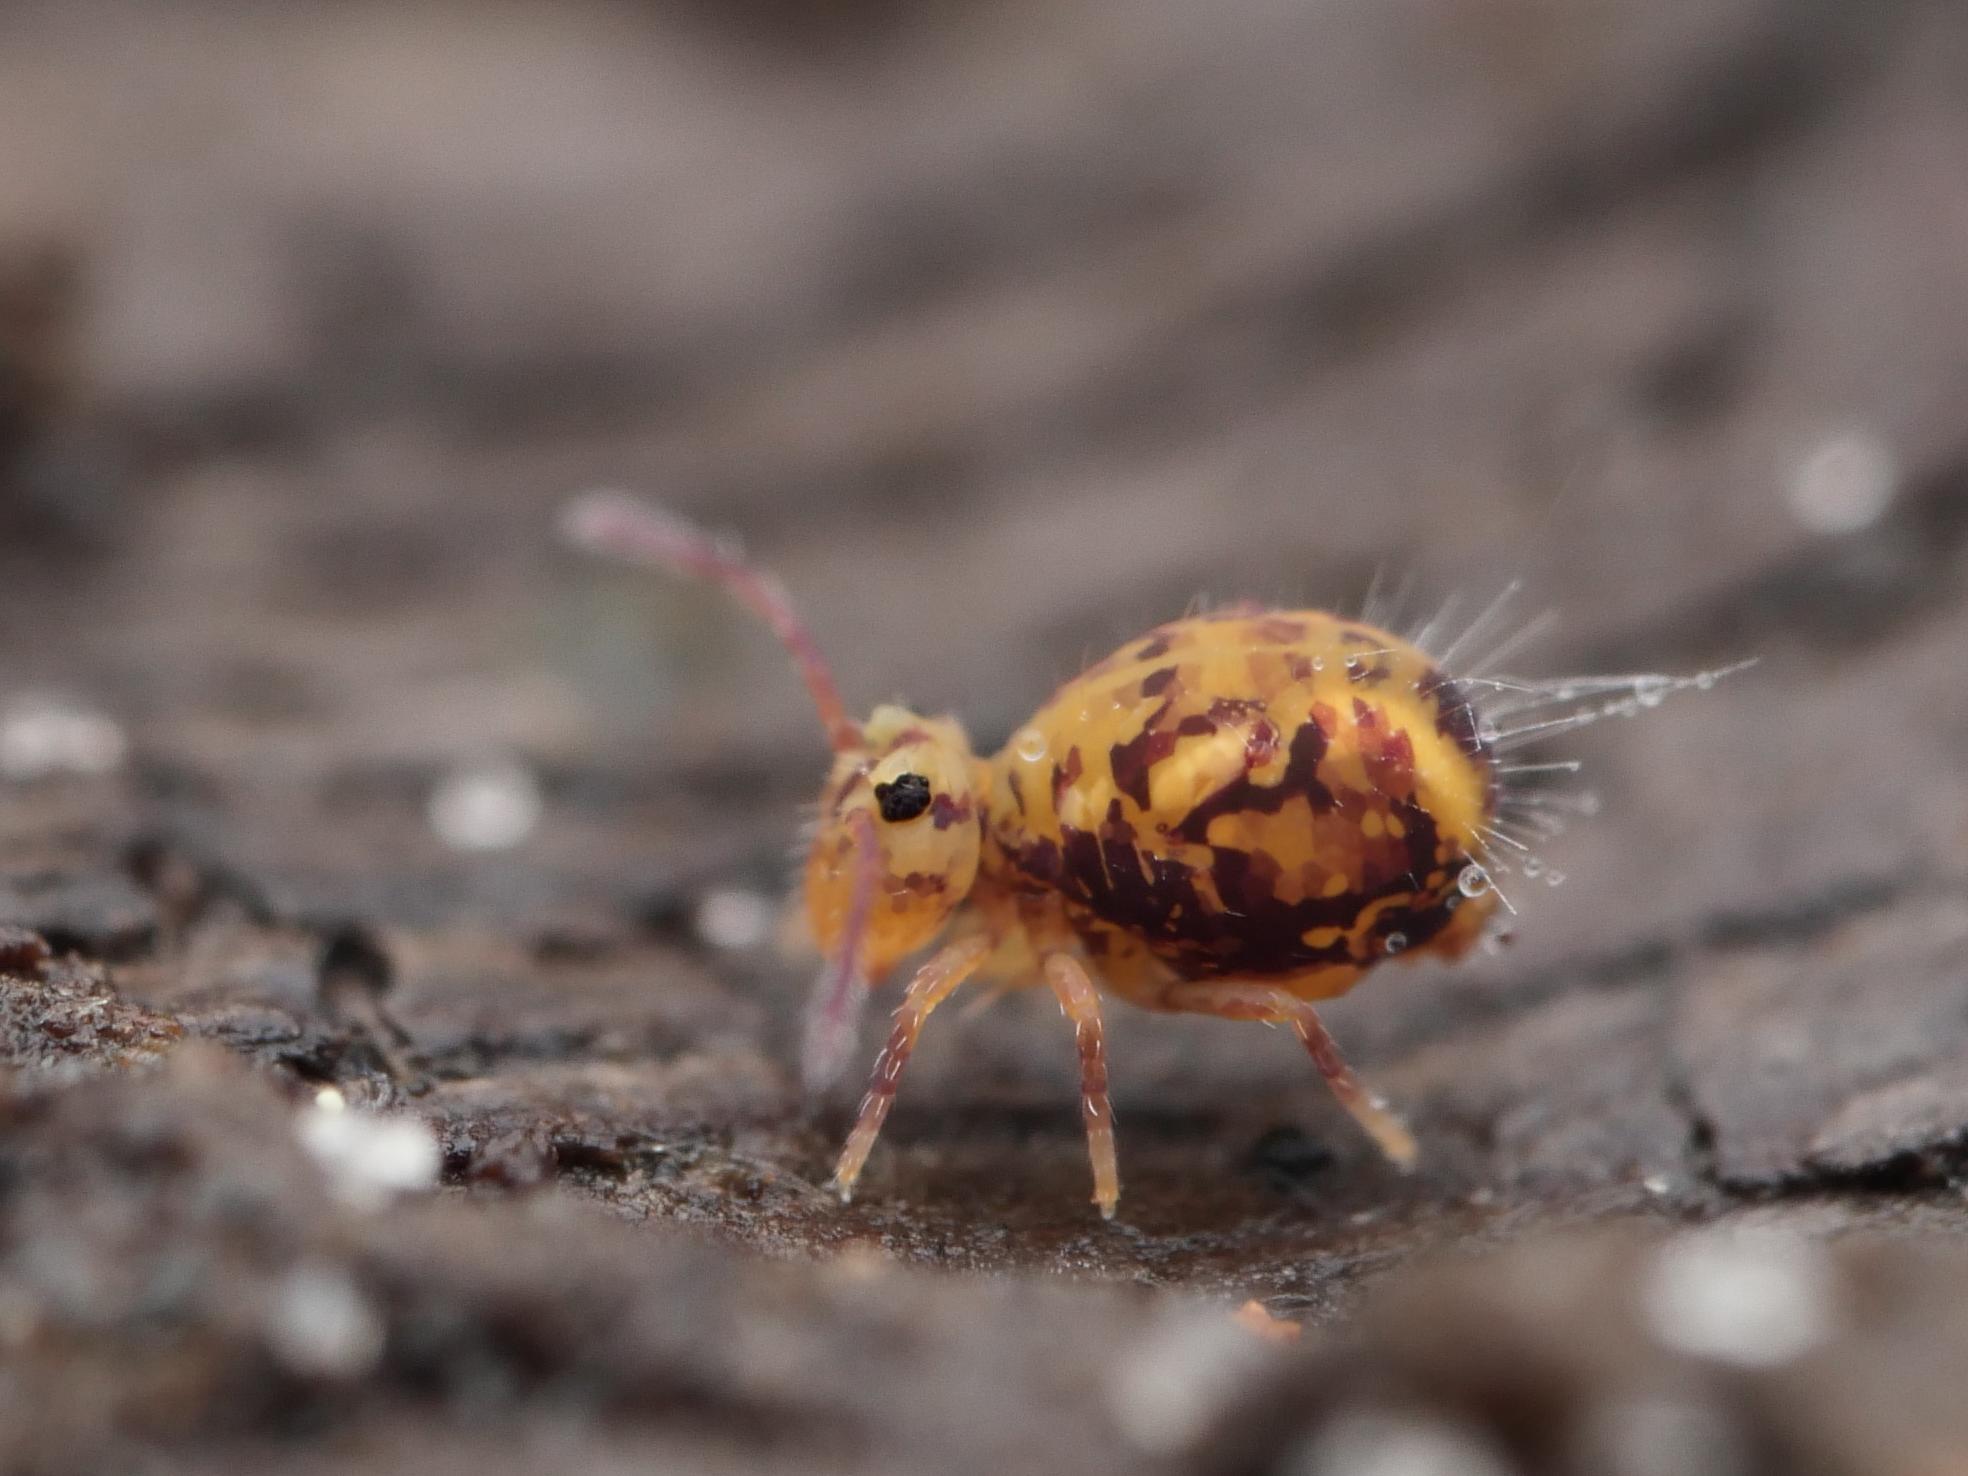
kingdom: Animalia
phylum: Arthropoda
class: Collembola
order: Symphypleona
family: Dicyrtomidae
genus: Dicyrtomina
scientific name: Dicyrtomina ornata
